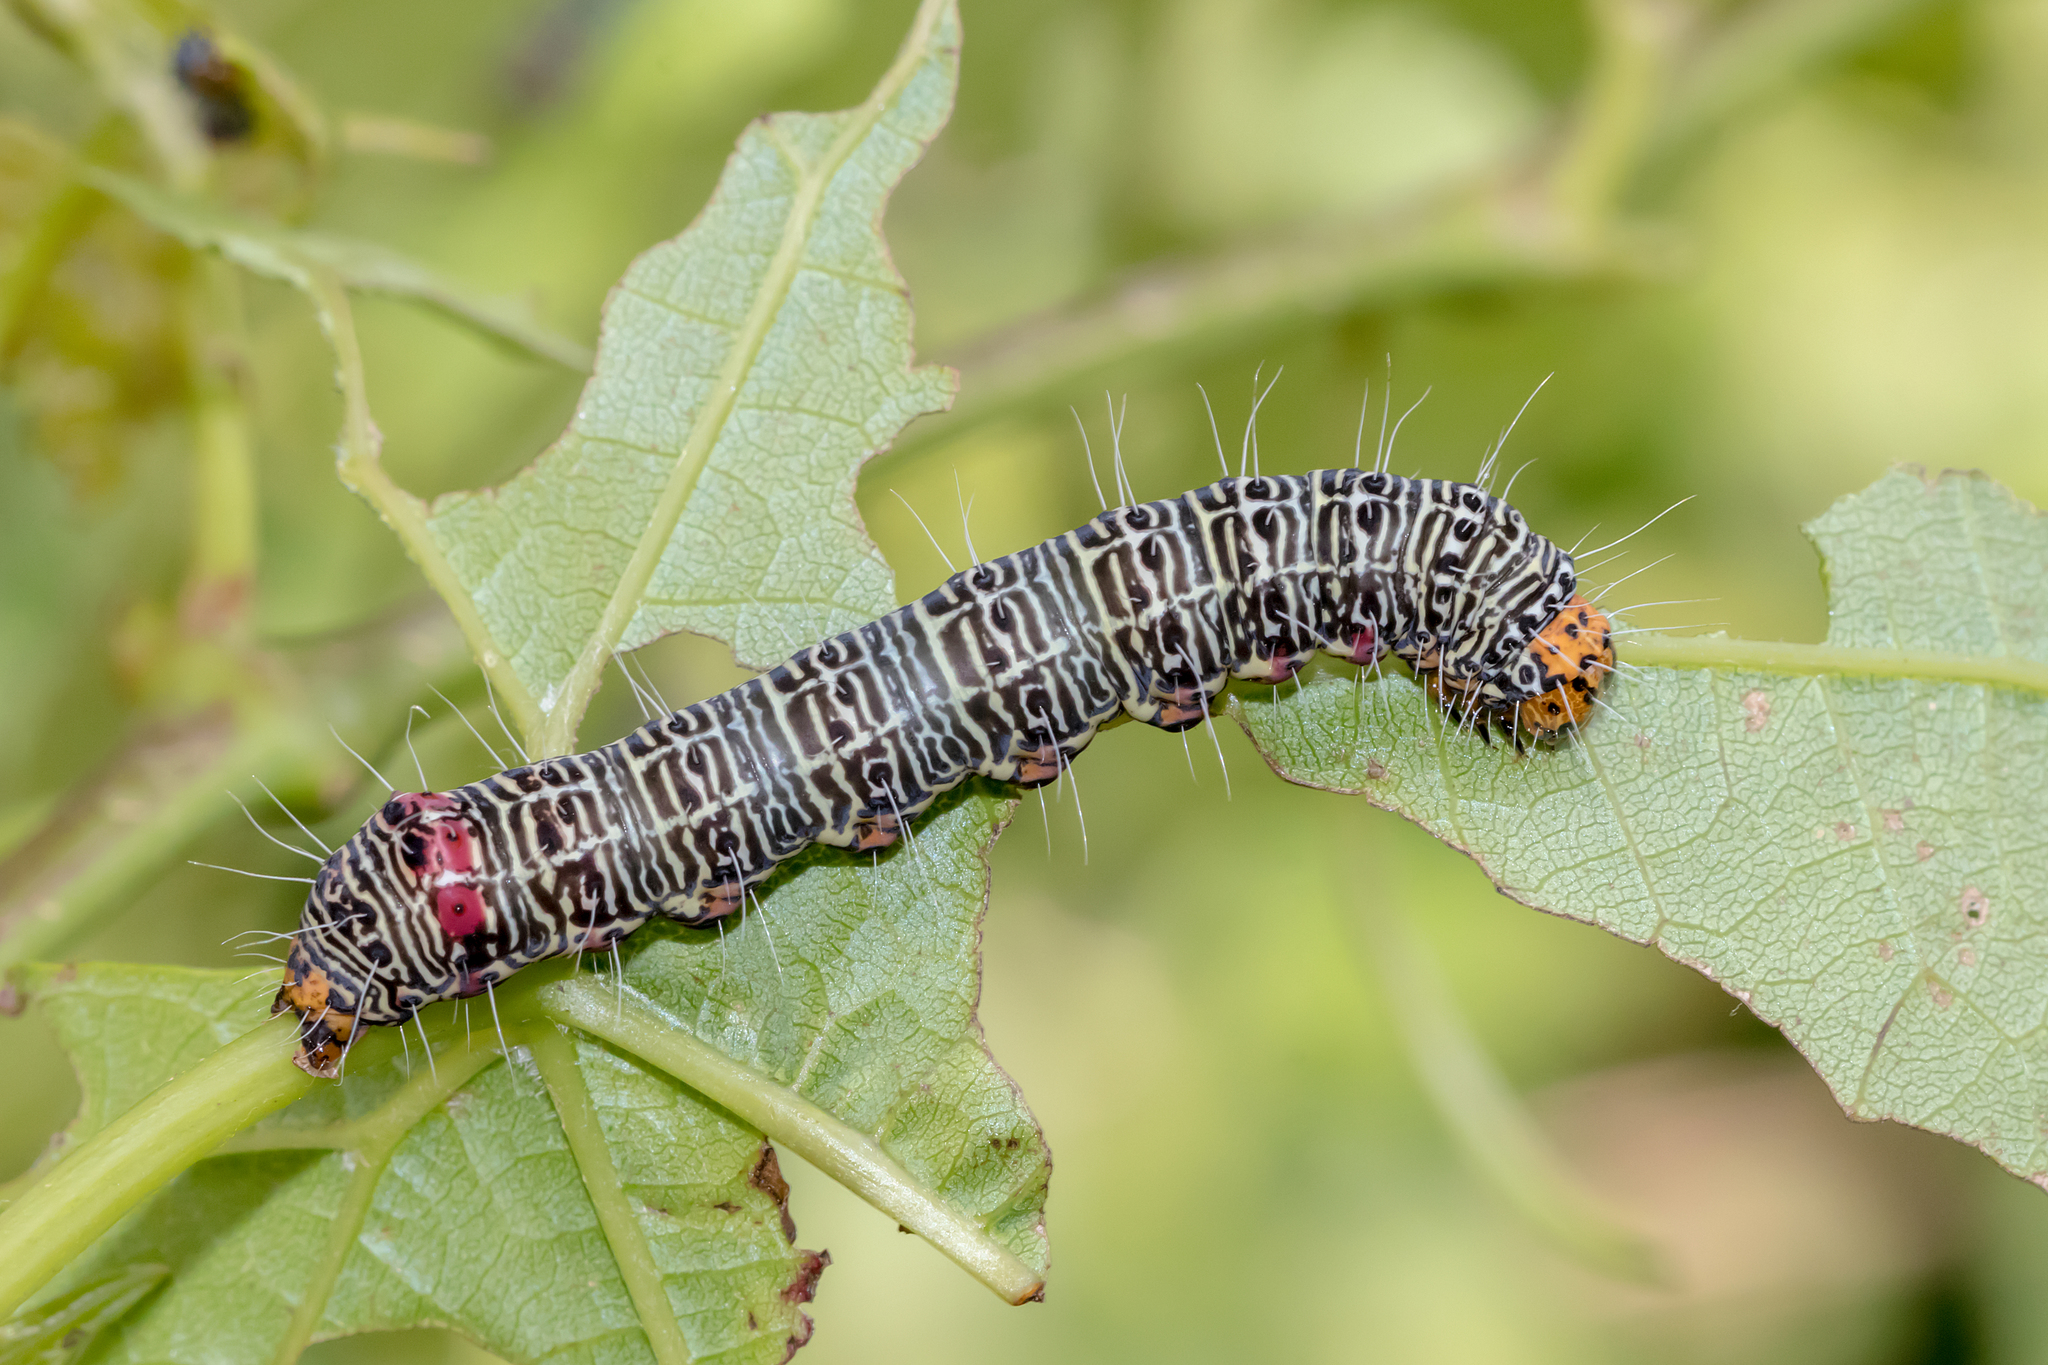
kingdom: Animalia
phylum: Arthropoda
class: Insecta
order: Lepidoptera
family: Noctuidae
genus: Phalaenoides
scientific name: Phalaenoides glycinae
